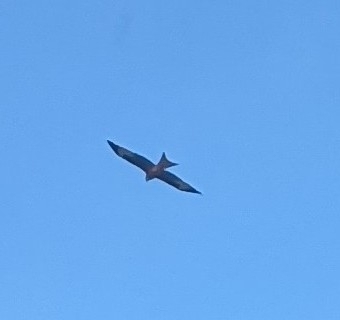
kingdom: Animalia
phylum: Chordata
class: Aves
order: Accipitriformes
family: Accipitridae
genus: Milvus
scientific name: Milvus milvus
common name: Red kite
